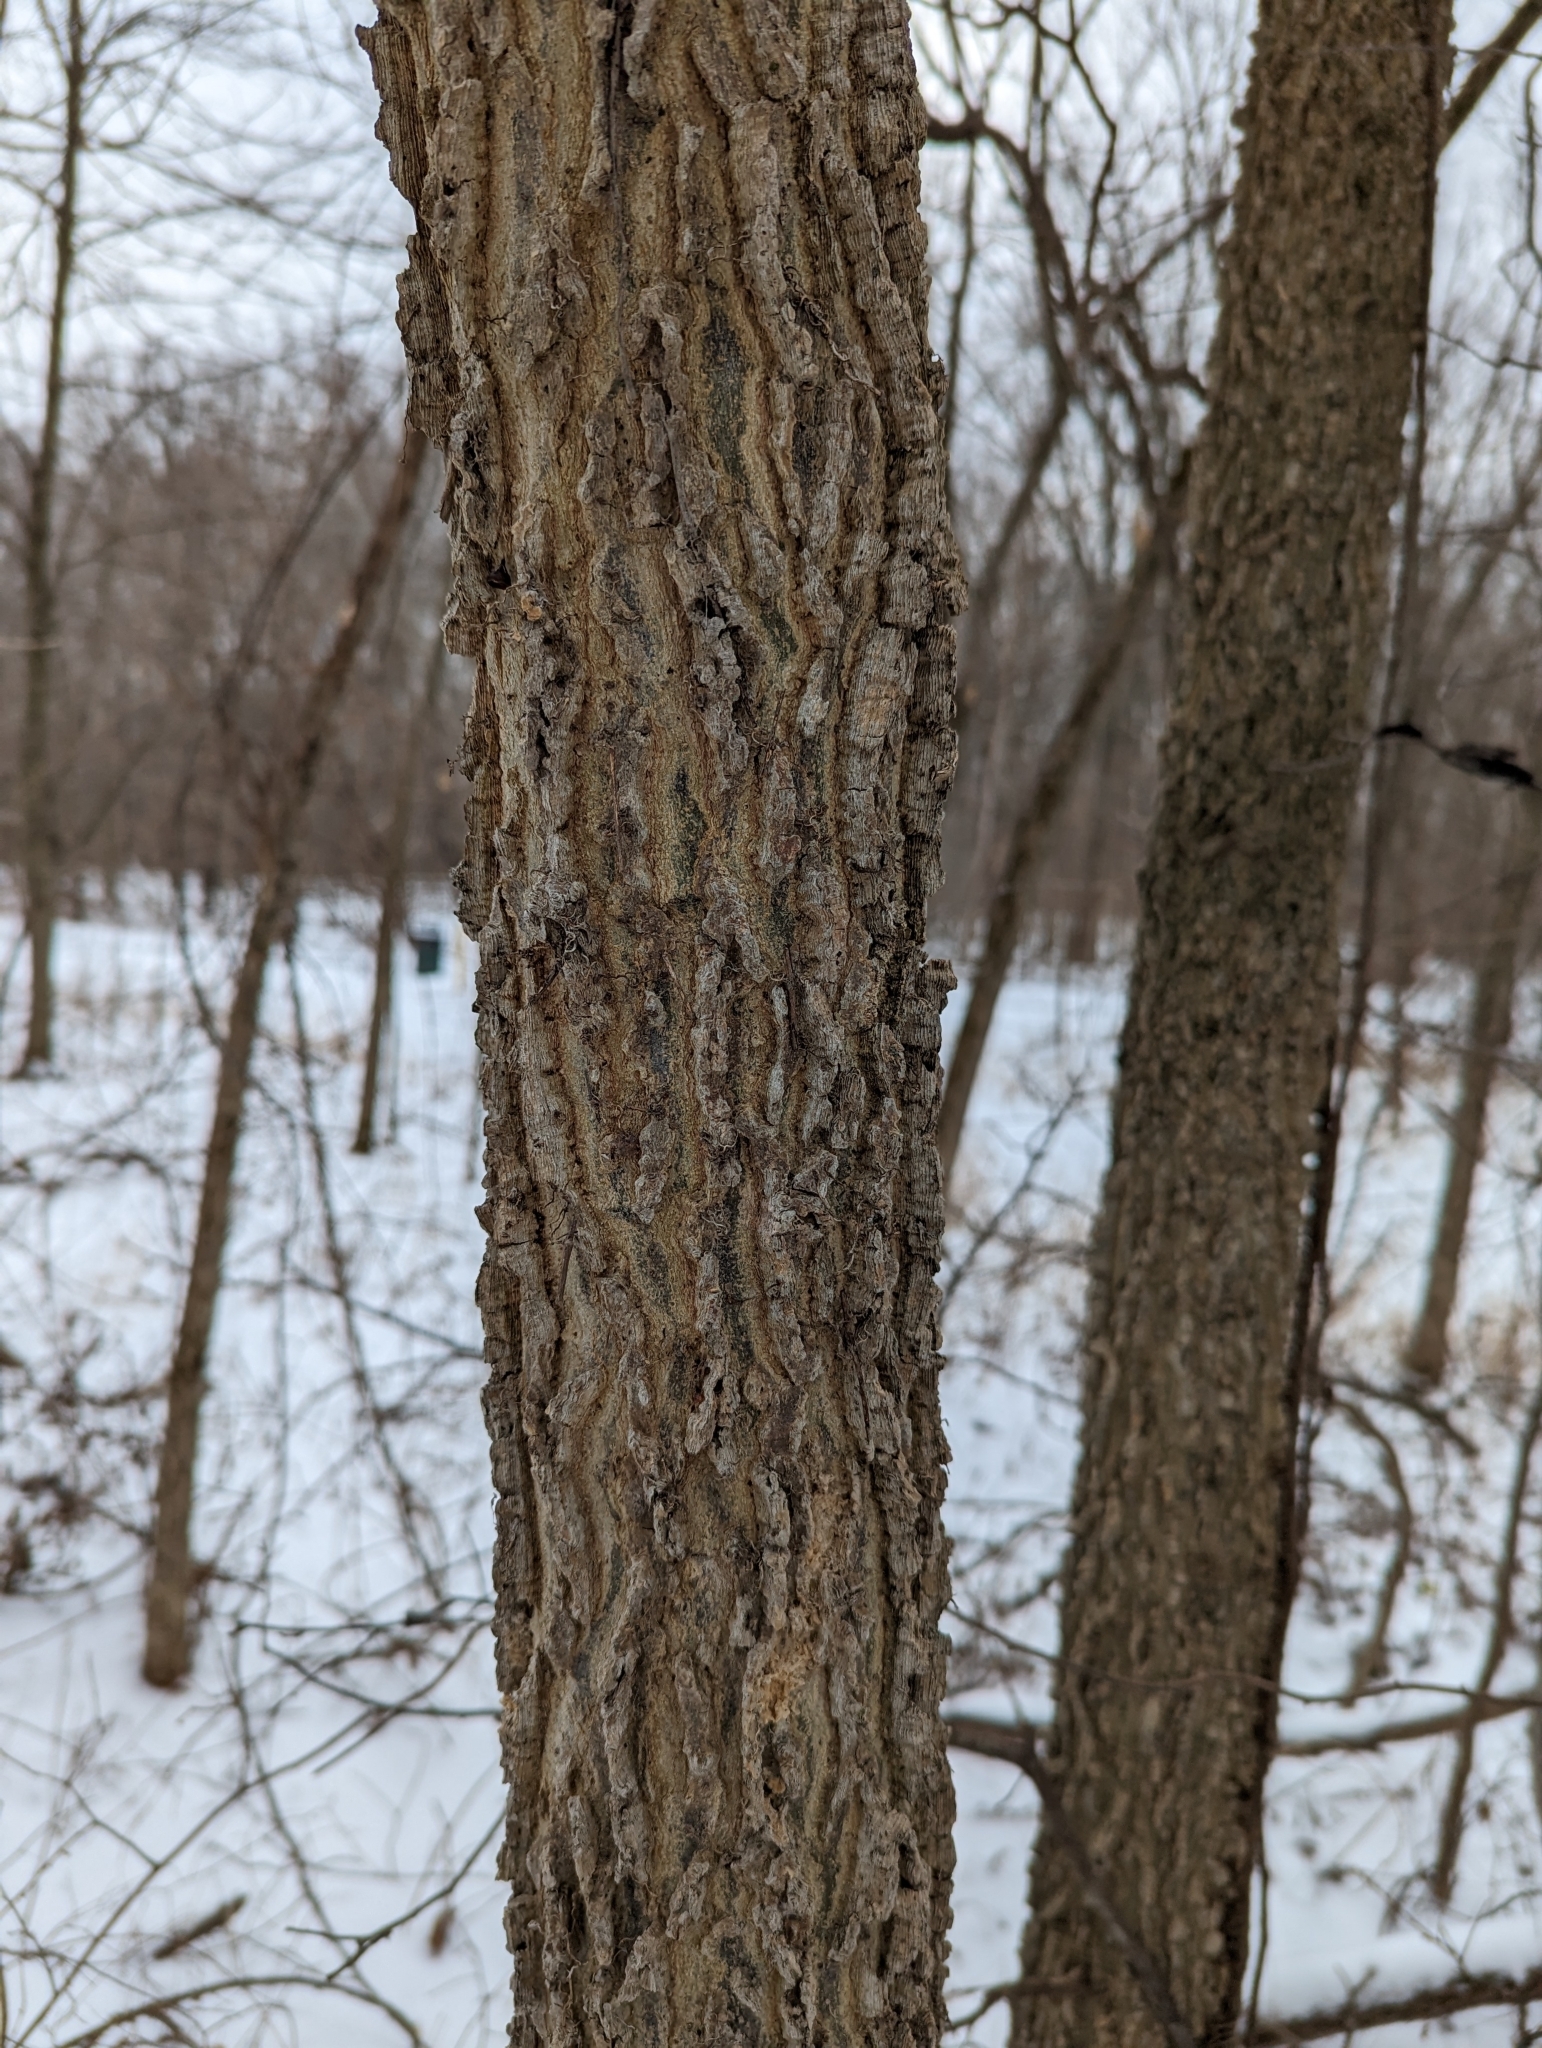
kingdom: Plantae
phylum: Tracheophyta
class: Magnoliopsida
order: Rosales
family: Cannabaceae
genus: Celtis
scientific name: Celtis occidentalis
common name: Common hackberry
